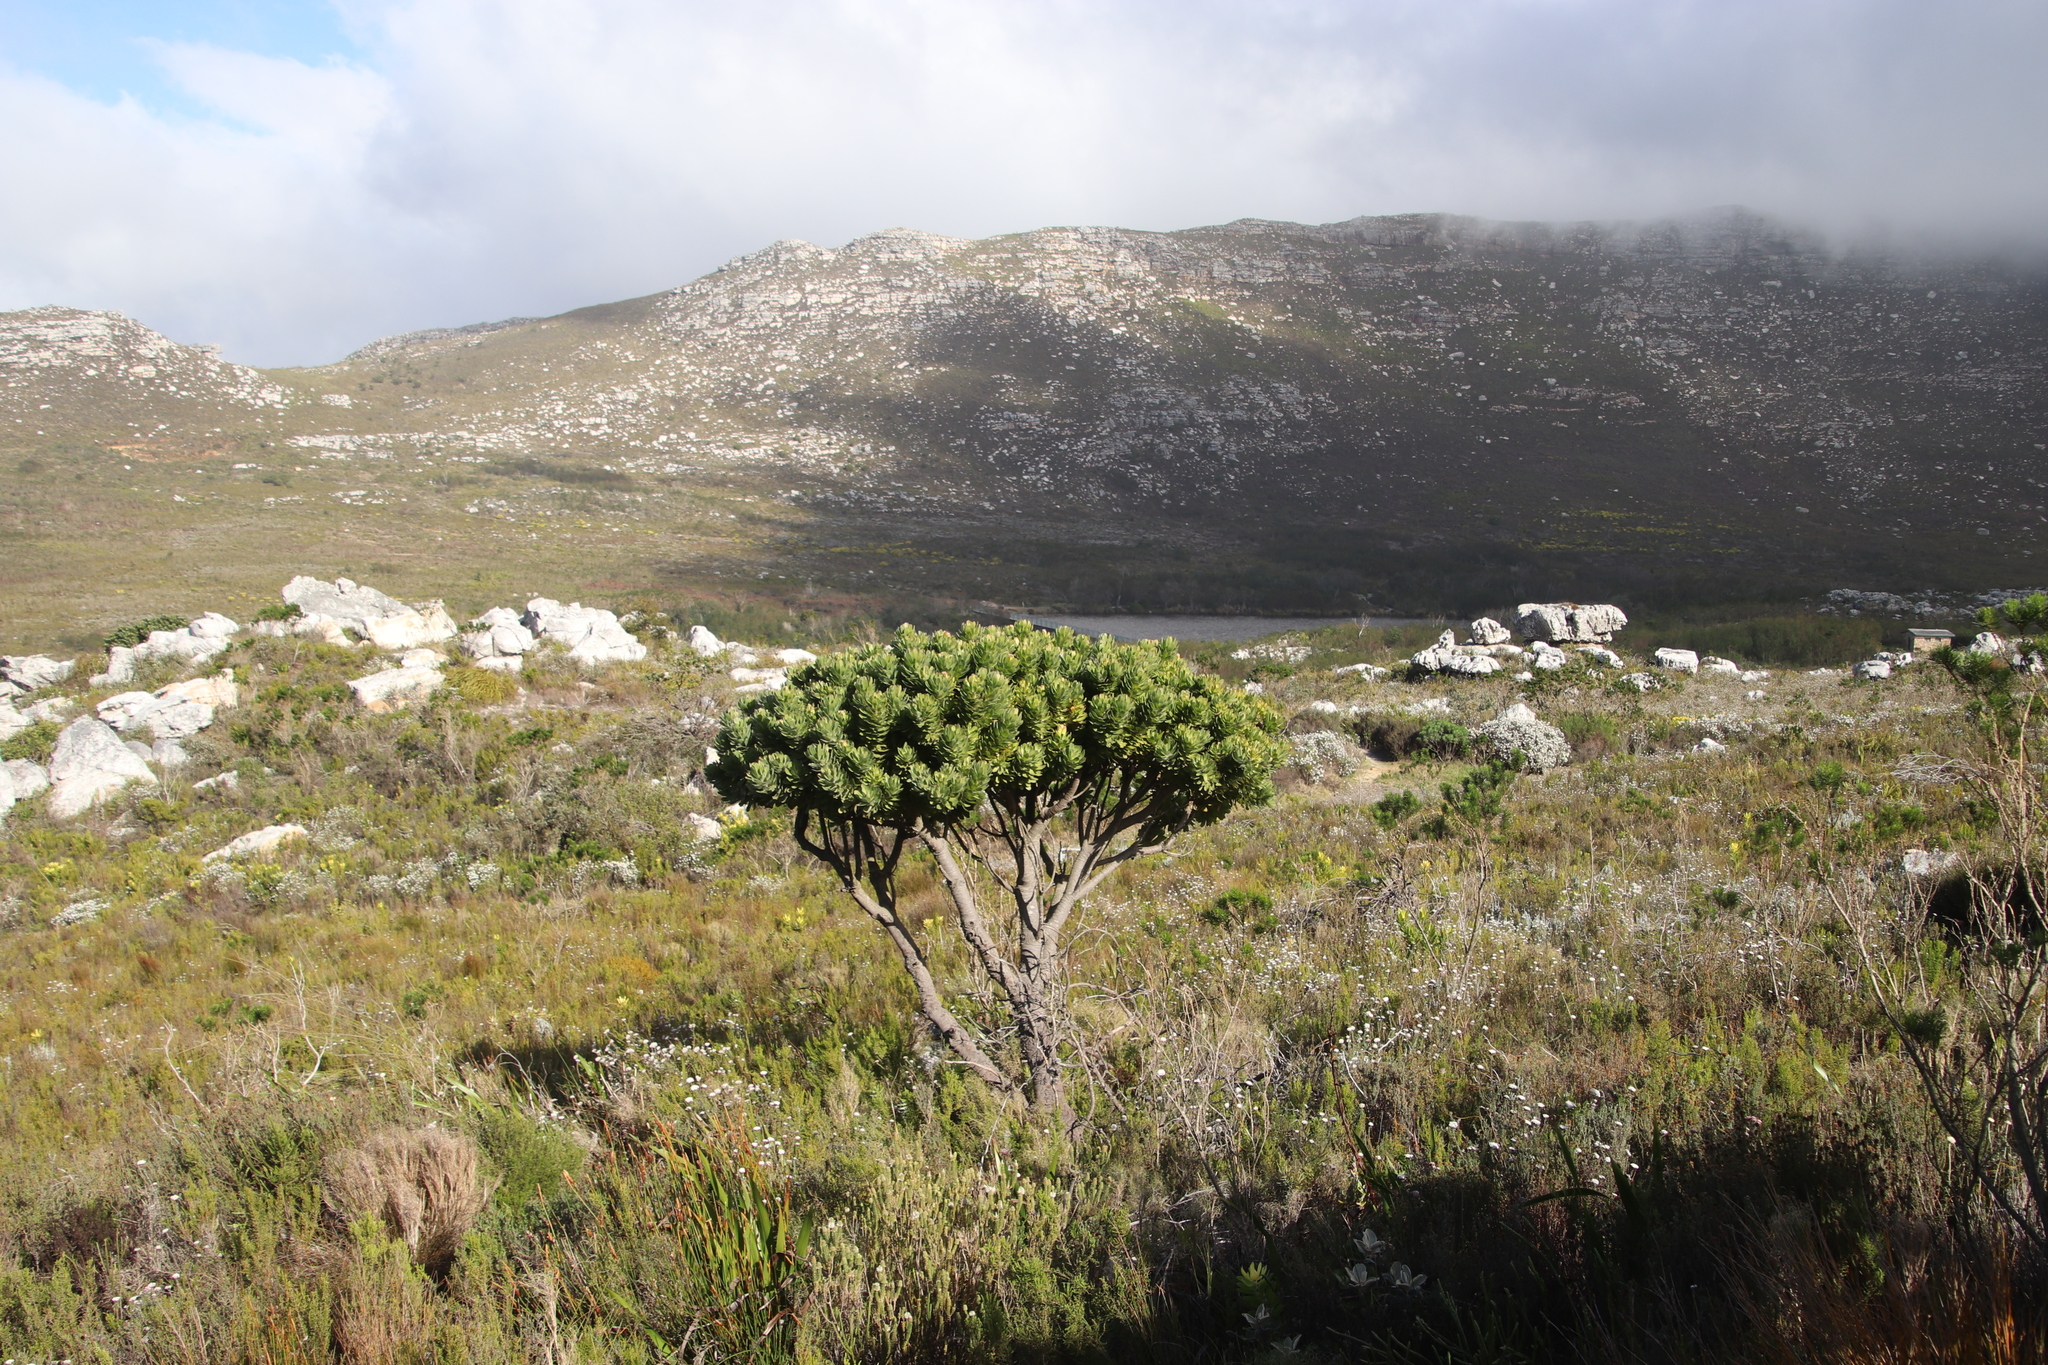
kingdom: Plantae
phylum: Tracheophyta
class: Magnoliopsida
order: Proteales
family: Proteaceae
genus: Mimetes
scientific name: Mimetes fimbriifolius
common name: Fringed bottlebrush
